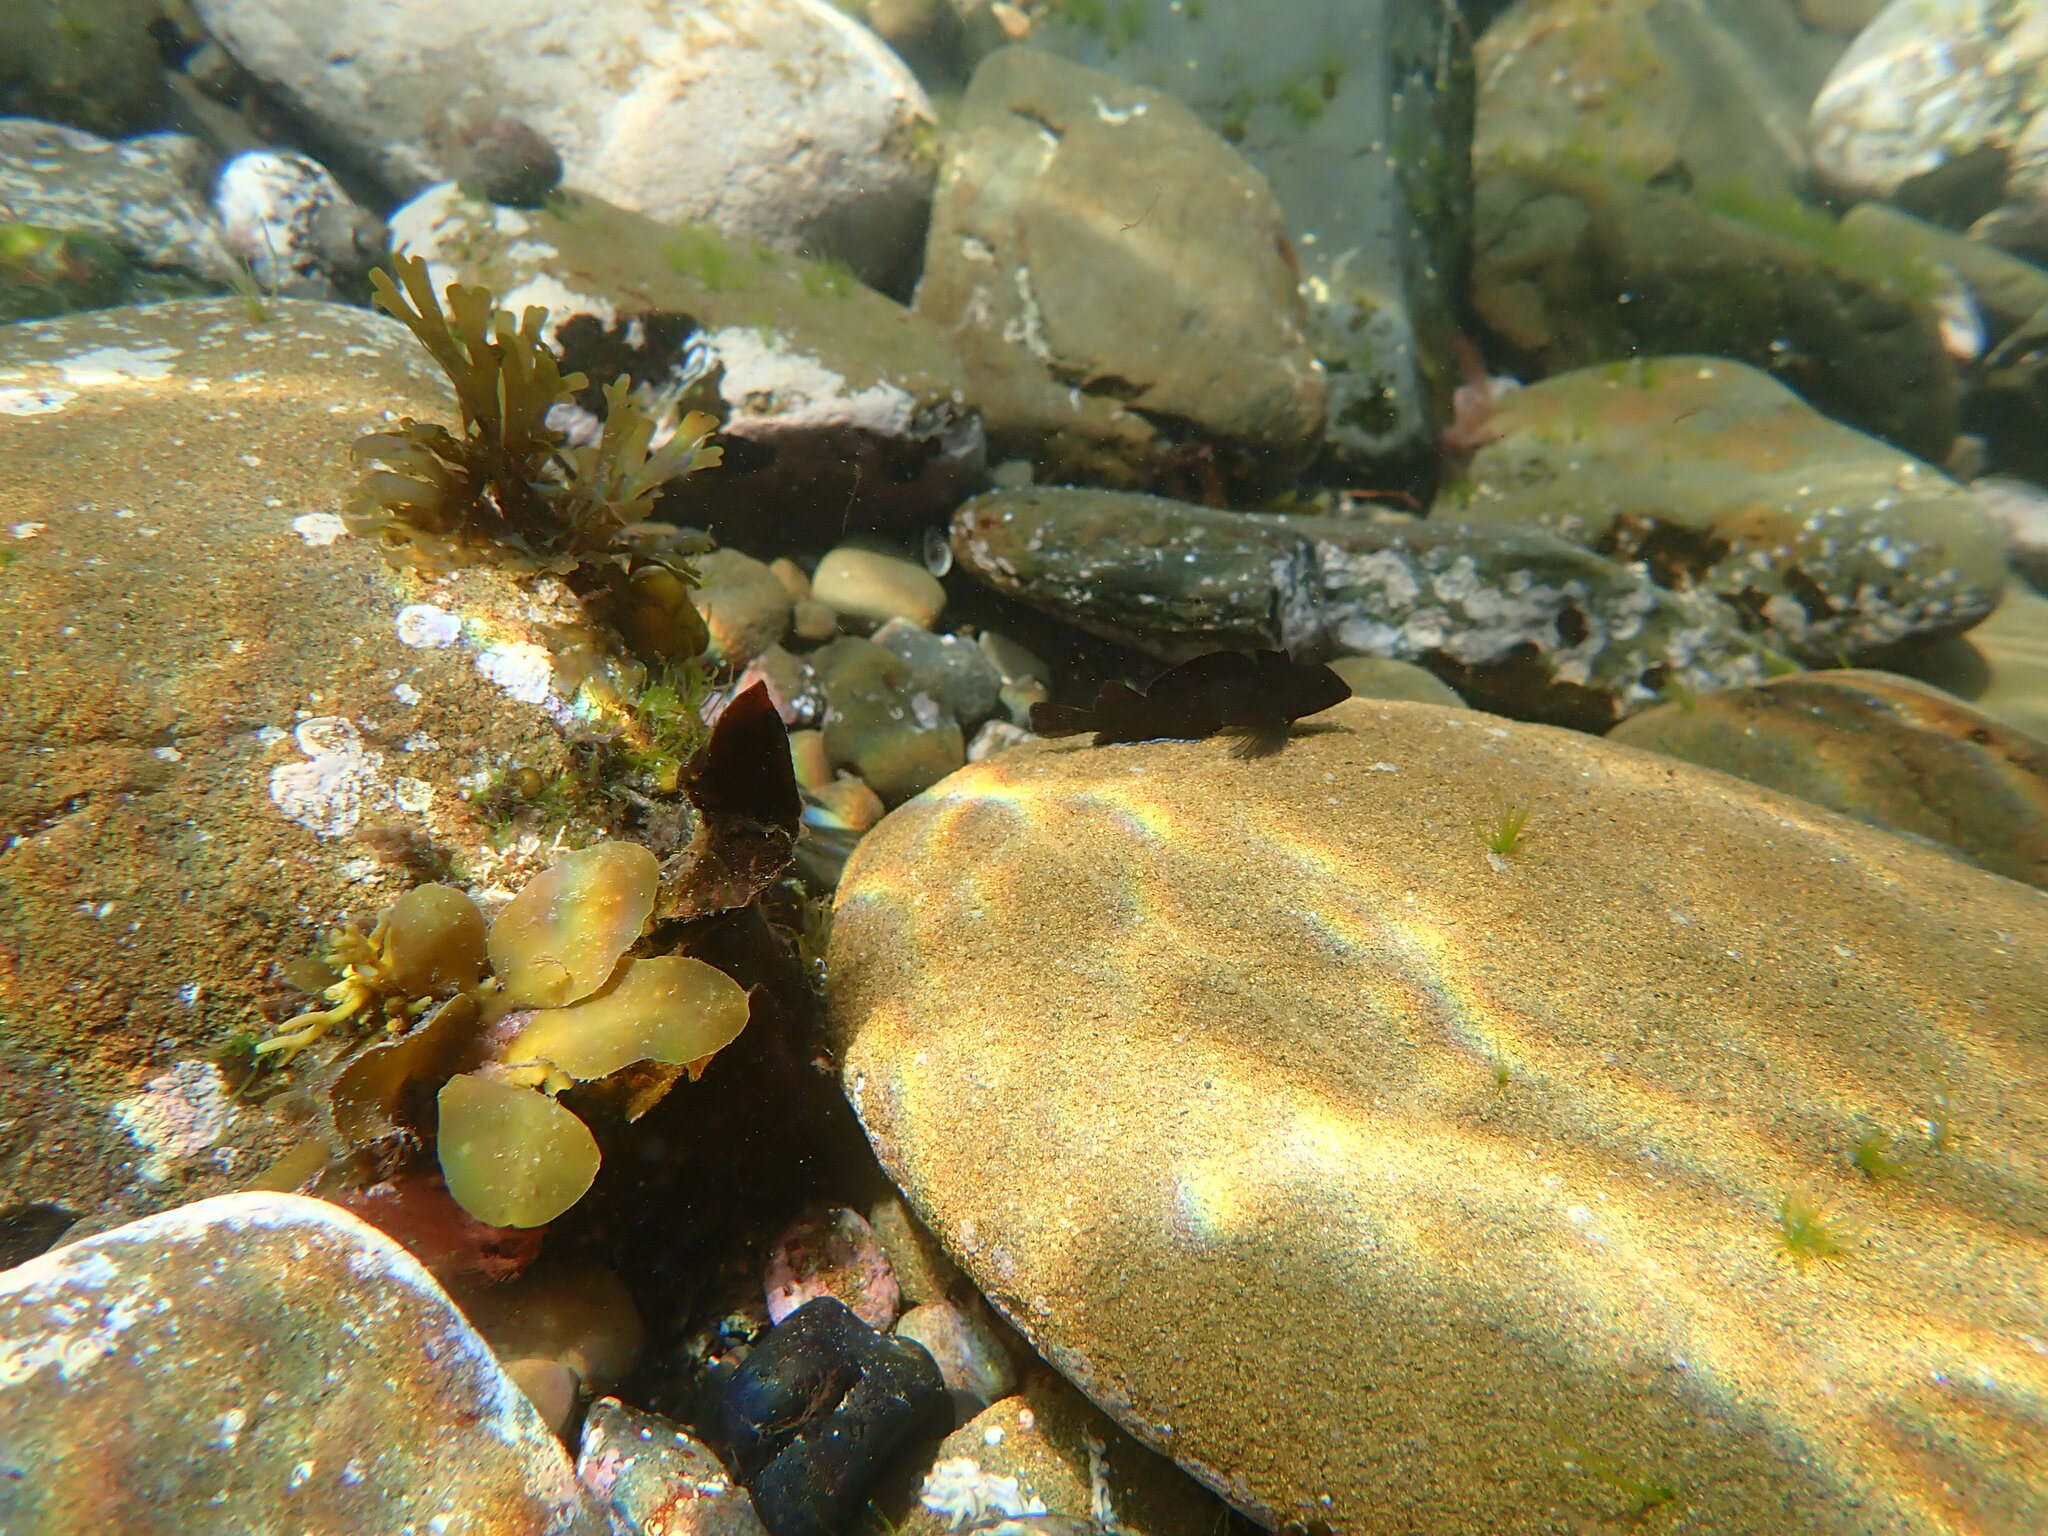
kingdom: Animalia
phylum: Chordata
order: Perciformes
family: Tripterygiidae
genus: Forsterygion
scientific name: Forsterygion lapillum
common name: Common triplefin
